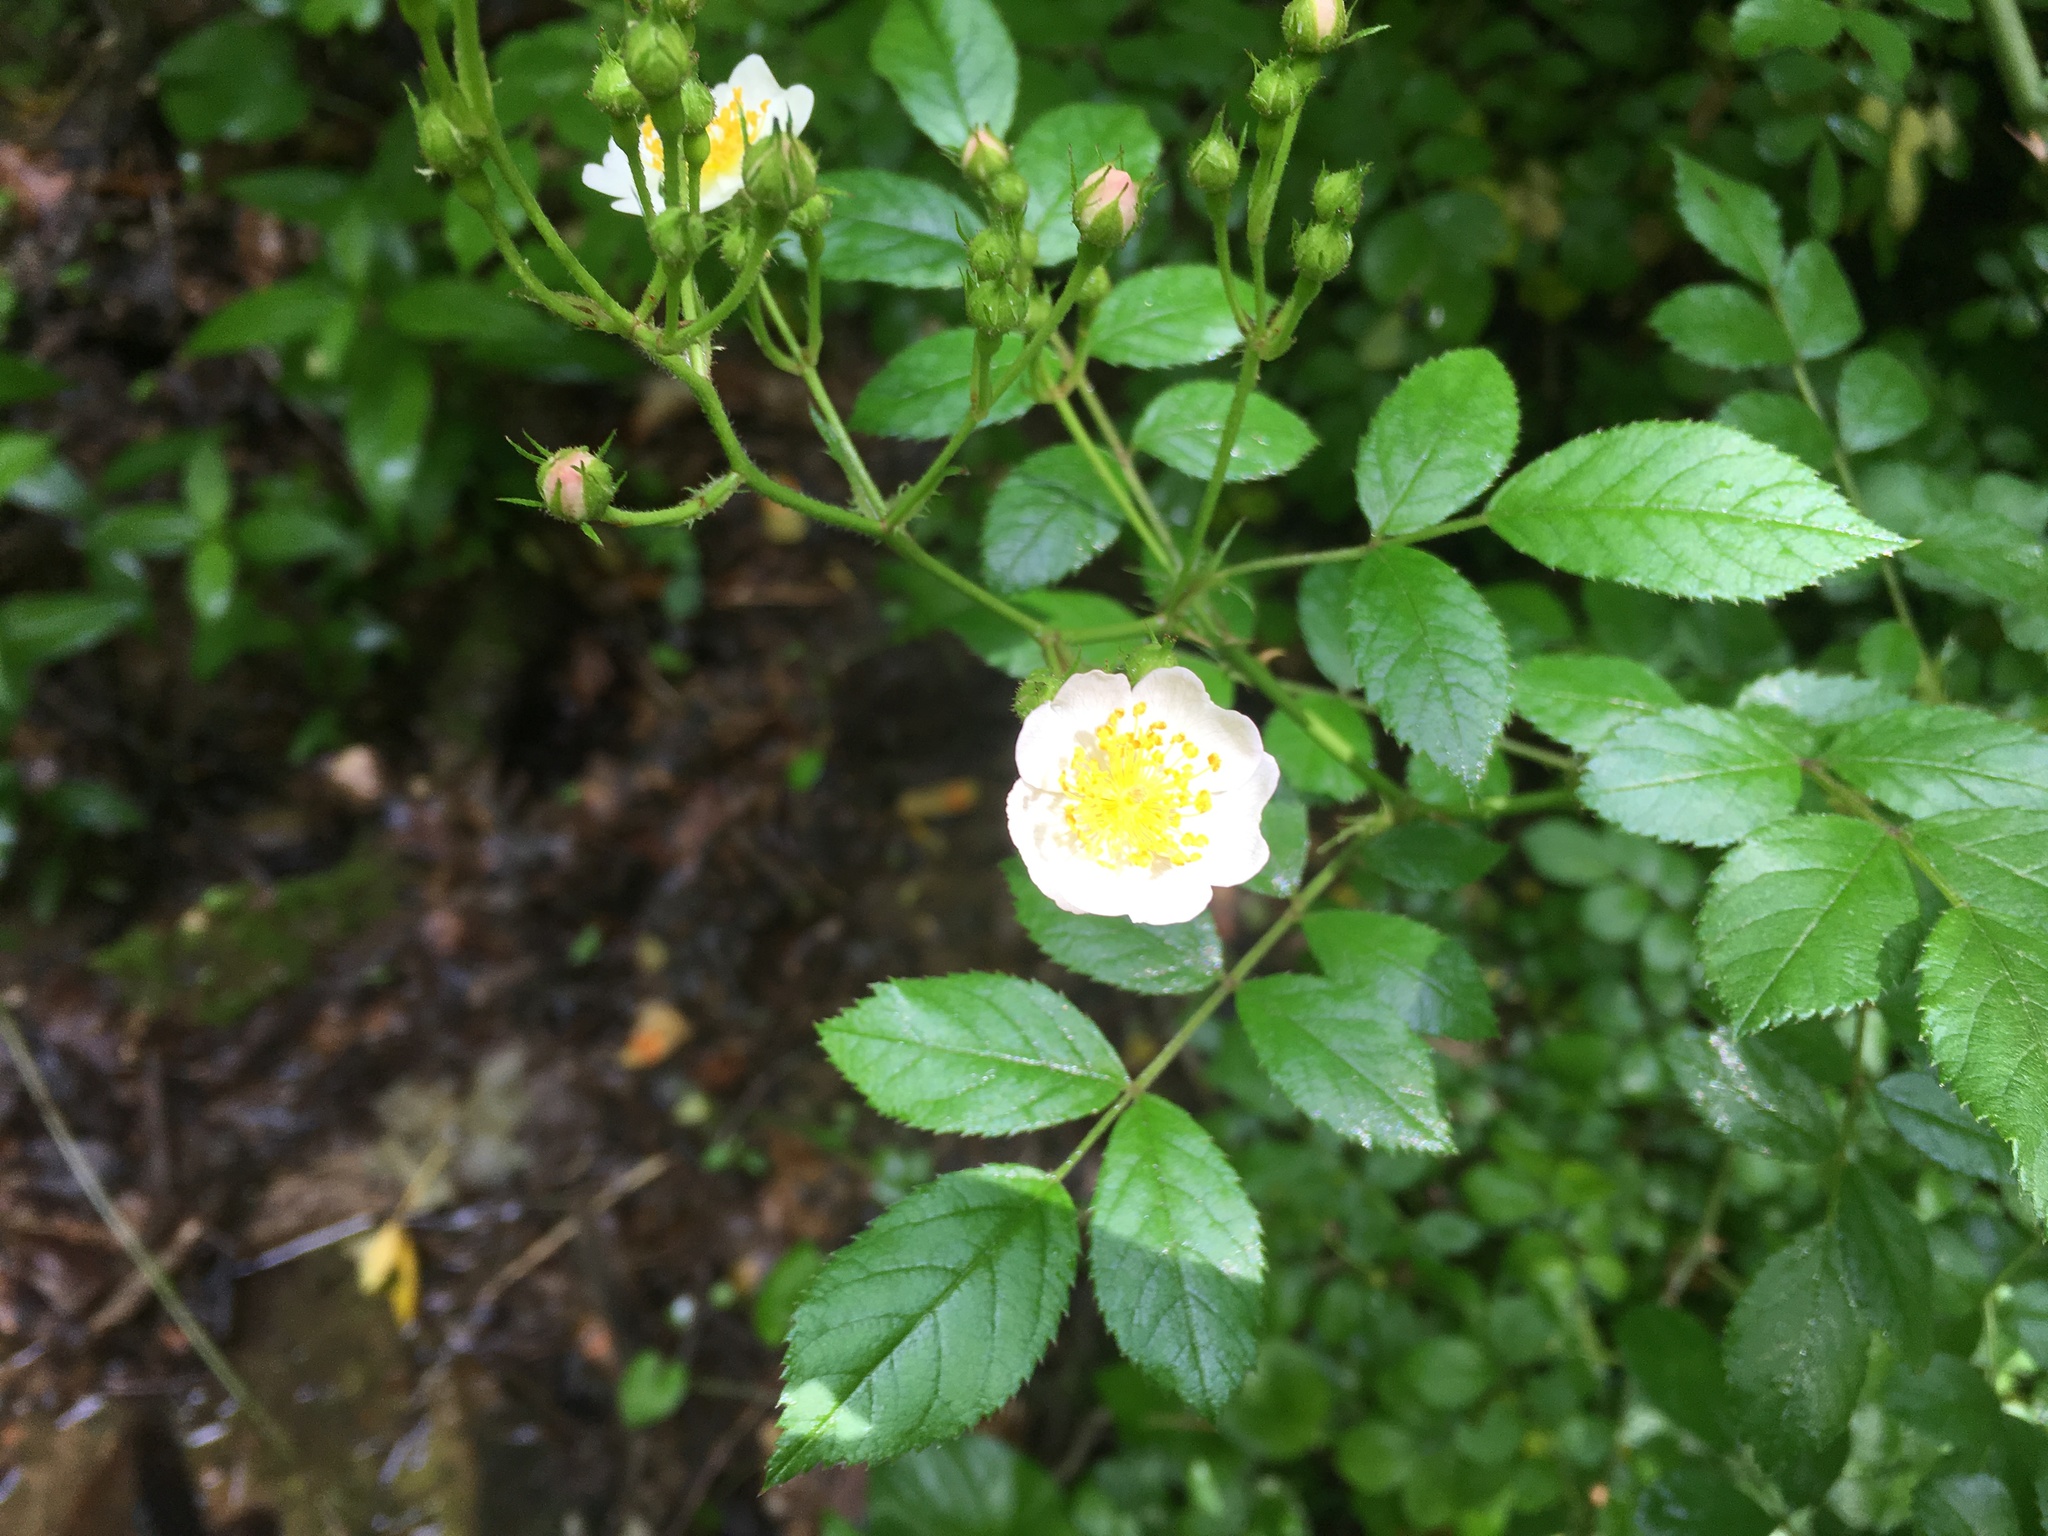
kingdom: Plantae
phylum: Tracheophyta
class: Magnoliopsida
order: Rosales
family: Rosaceae
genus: Rosa
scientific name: Rosa multiflora
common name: Multiflora rose
